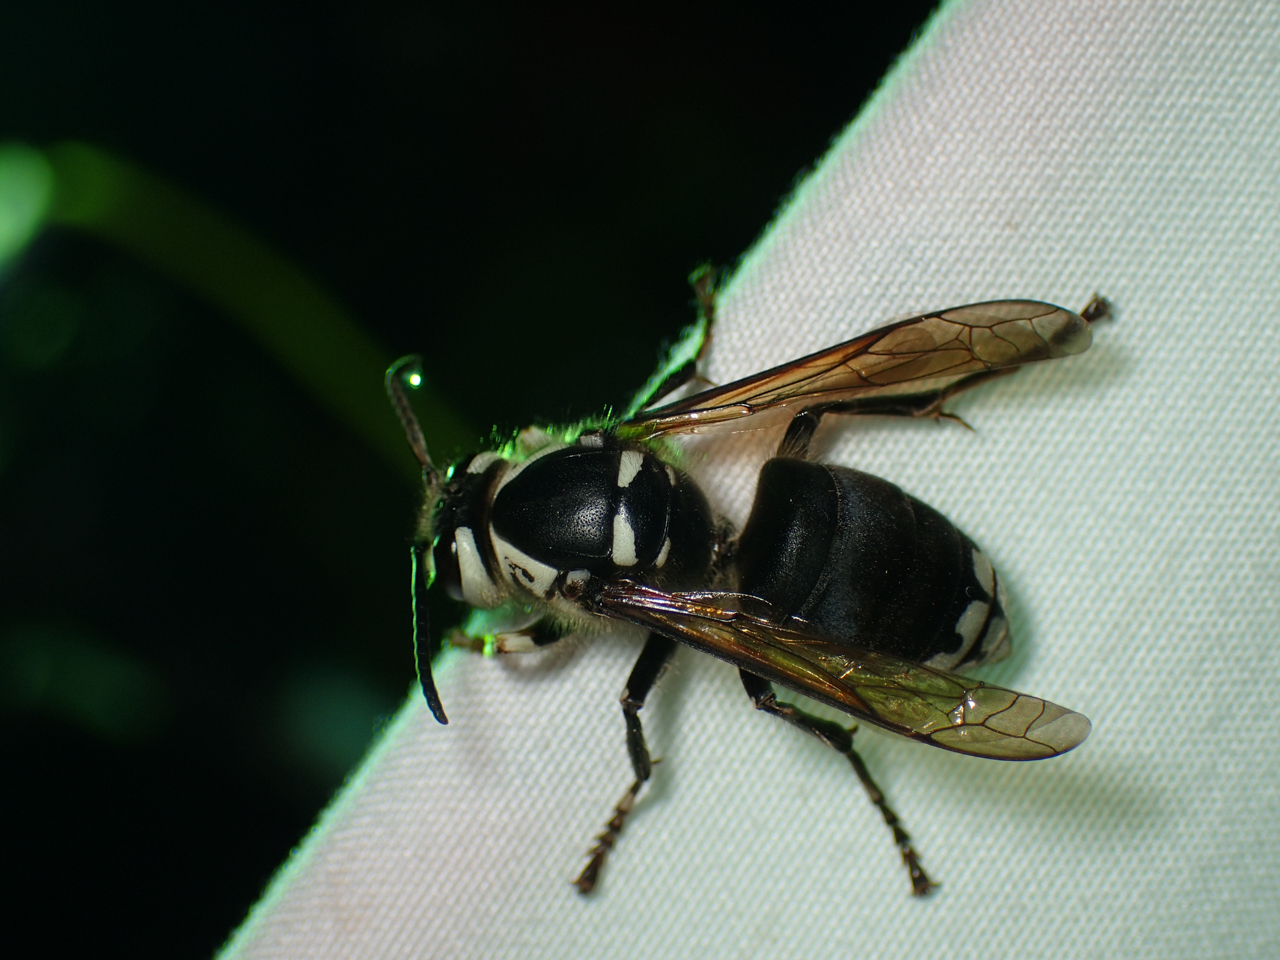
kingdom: Animalia
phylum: Arthropoda
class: Insecta
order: Hymenoptera
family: Vespidae
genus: Dolichovespula
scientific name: Dolichovespula maculata
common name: Bald-faced hornet
